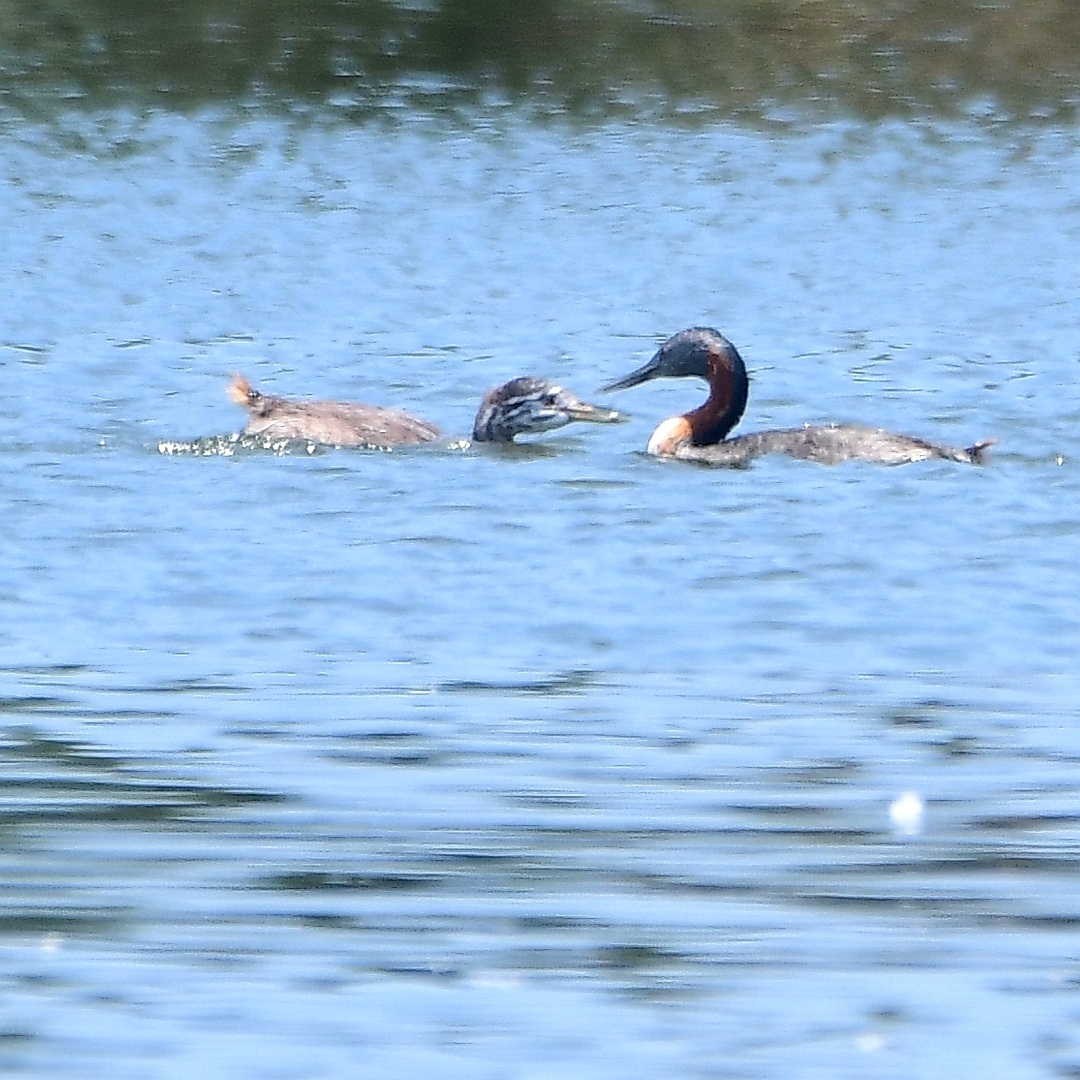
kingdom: Animalia
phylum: Chordata
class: Aves
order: Podicipediformes
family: Podicipedidae
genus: Podiceps
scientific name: Podiceps major
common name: Great grebe
